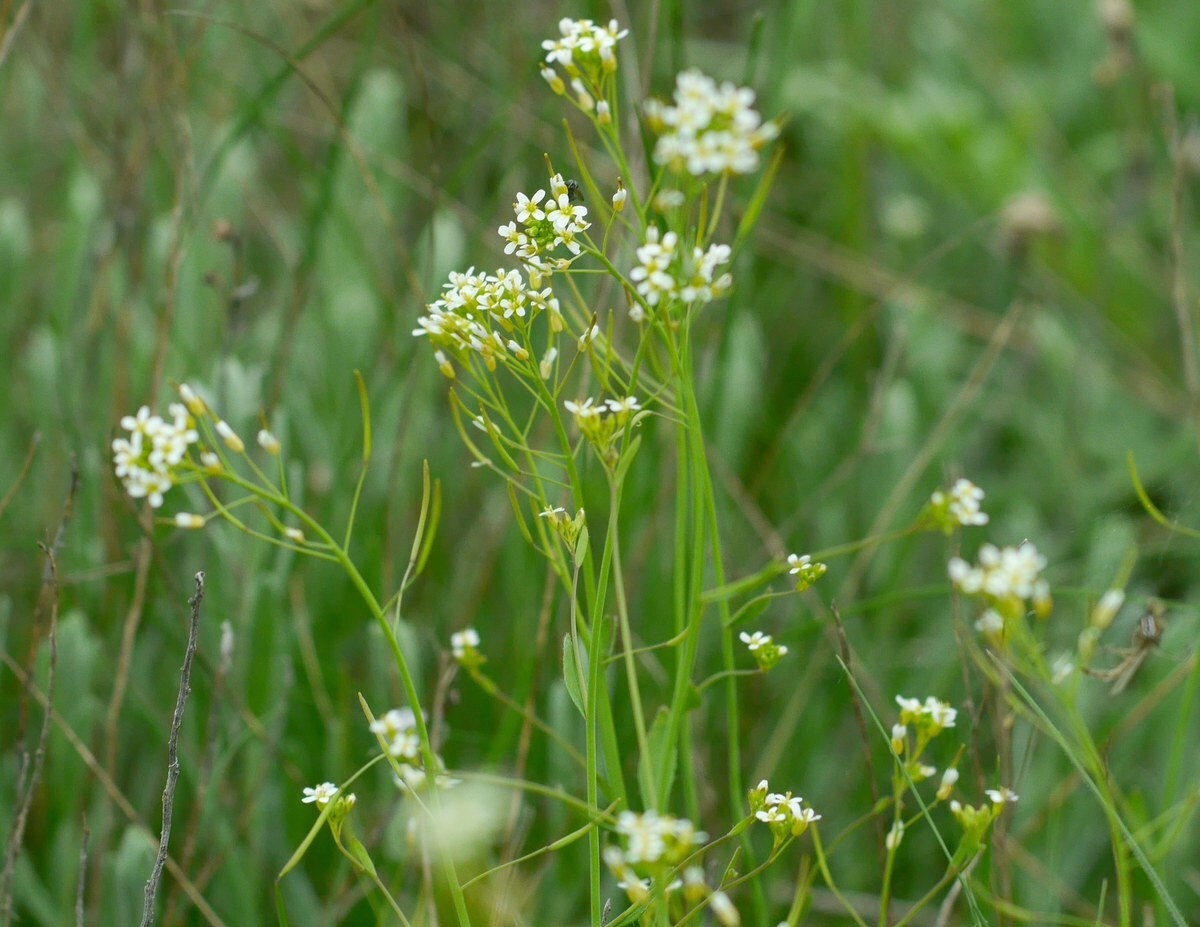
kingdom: Plantae
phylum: Tracheophyta
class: Magnoliopsida
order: Brassicales
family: Brassicaceae
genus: Arabidopsis
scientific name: Arabidopsis thaliana
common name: Thale cress
